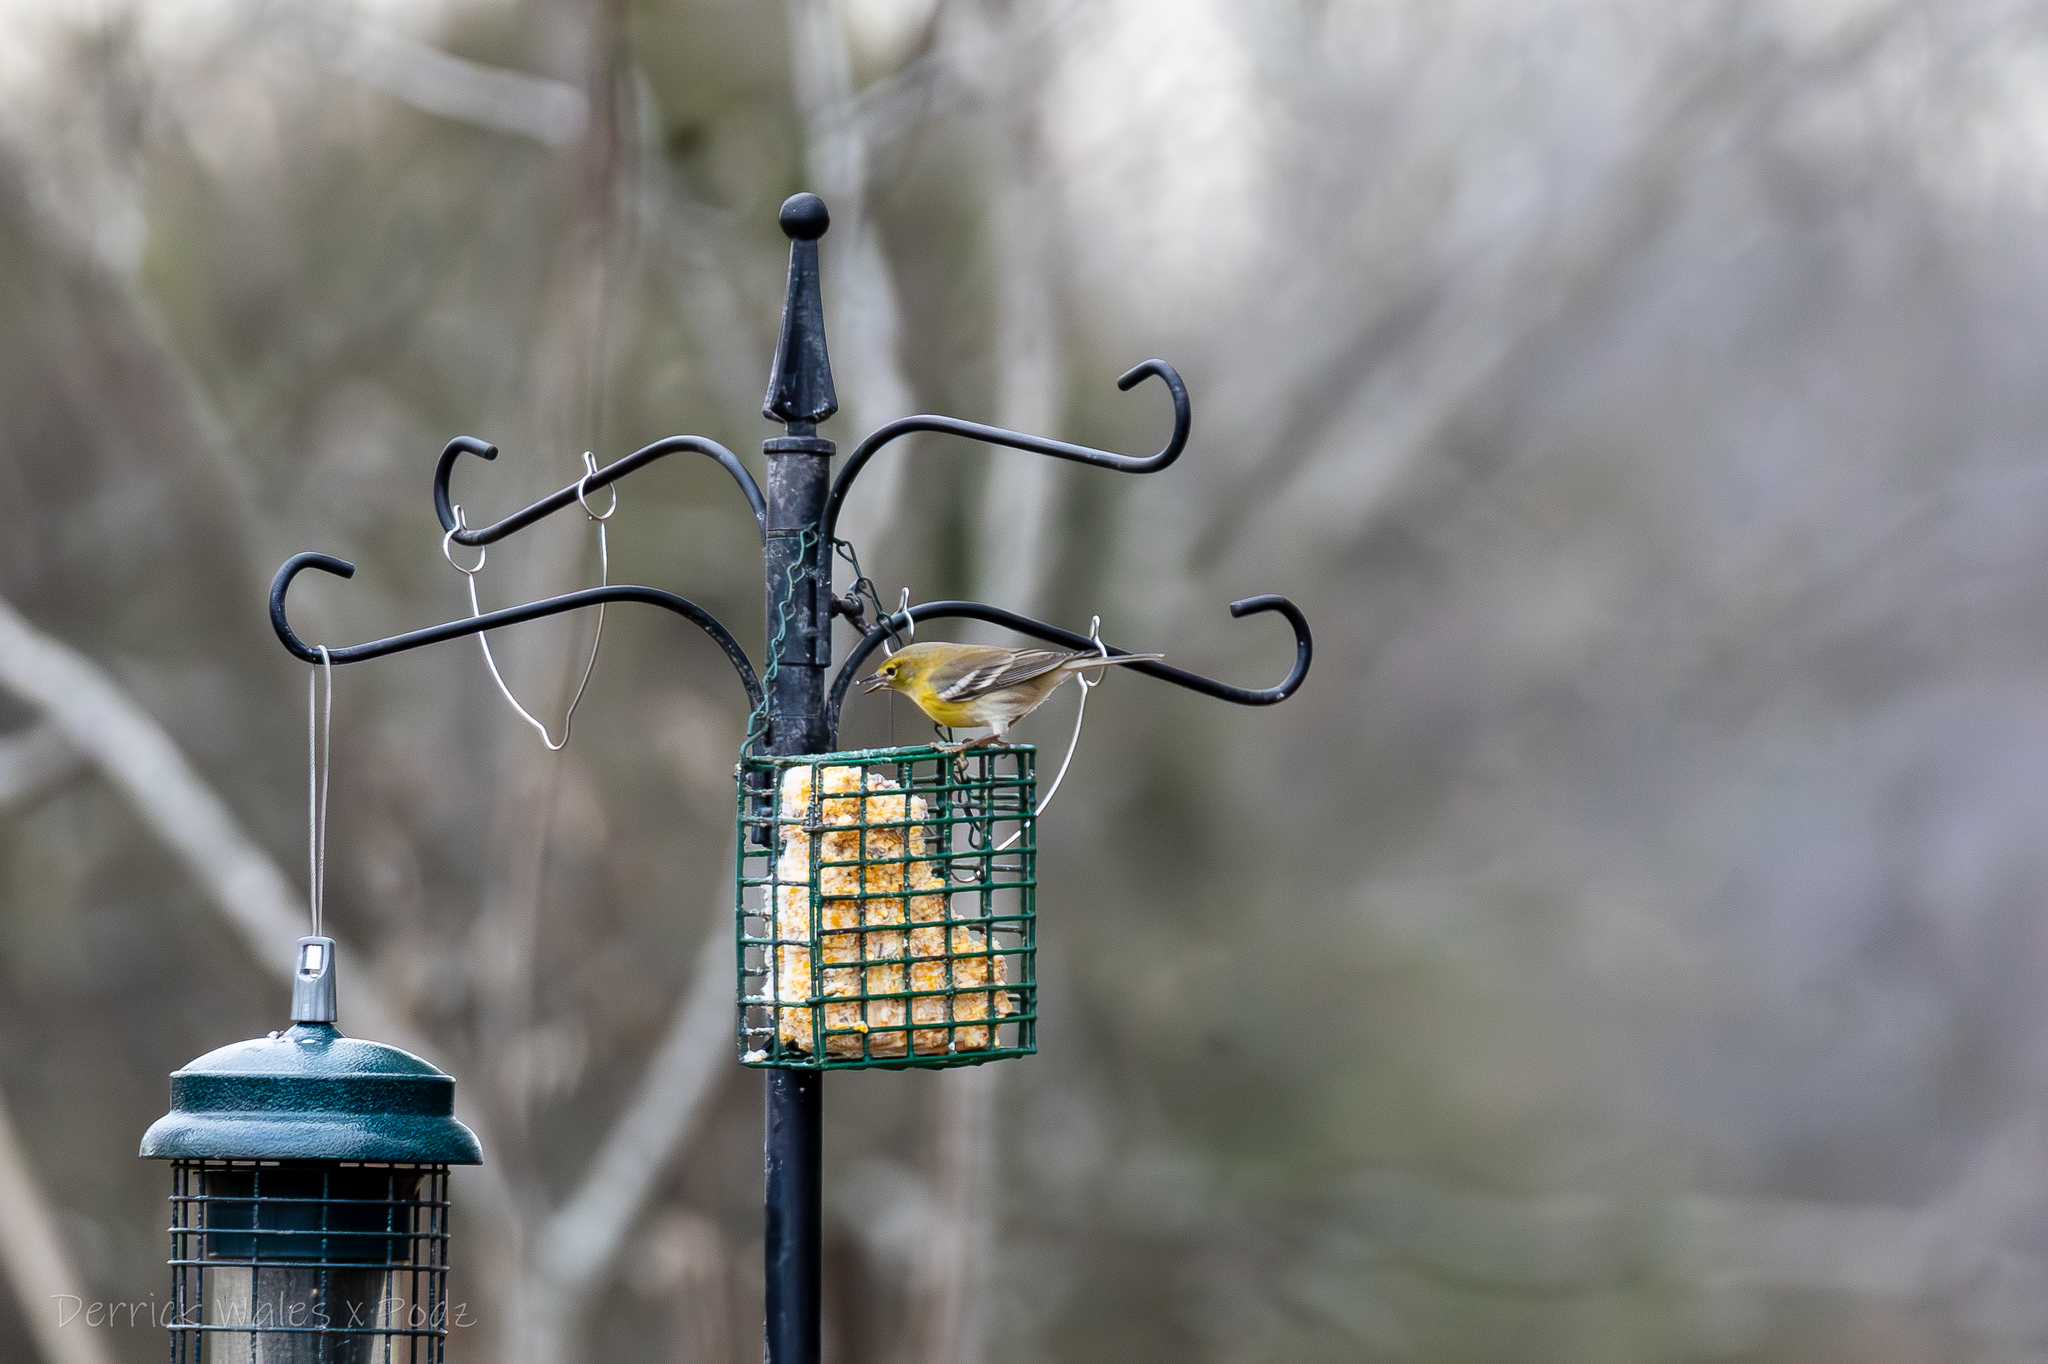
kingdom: Animalia
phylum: Chordata
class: Aves
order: Passeriformes
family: Parulidae
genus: Setophaga
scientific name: Setophaga pinus
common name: Pine warbler
